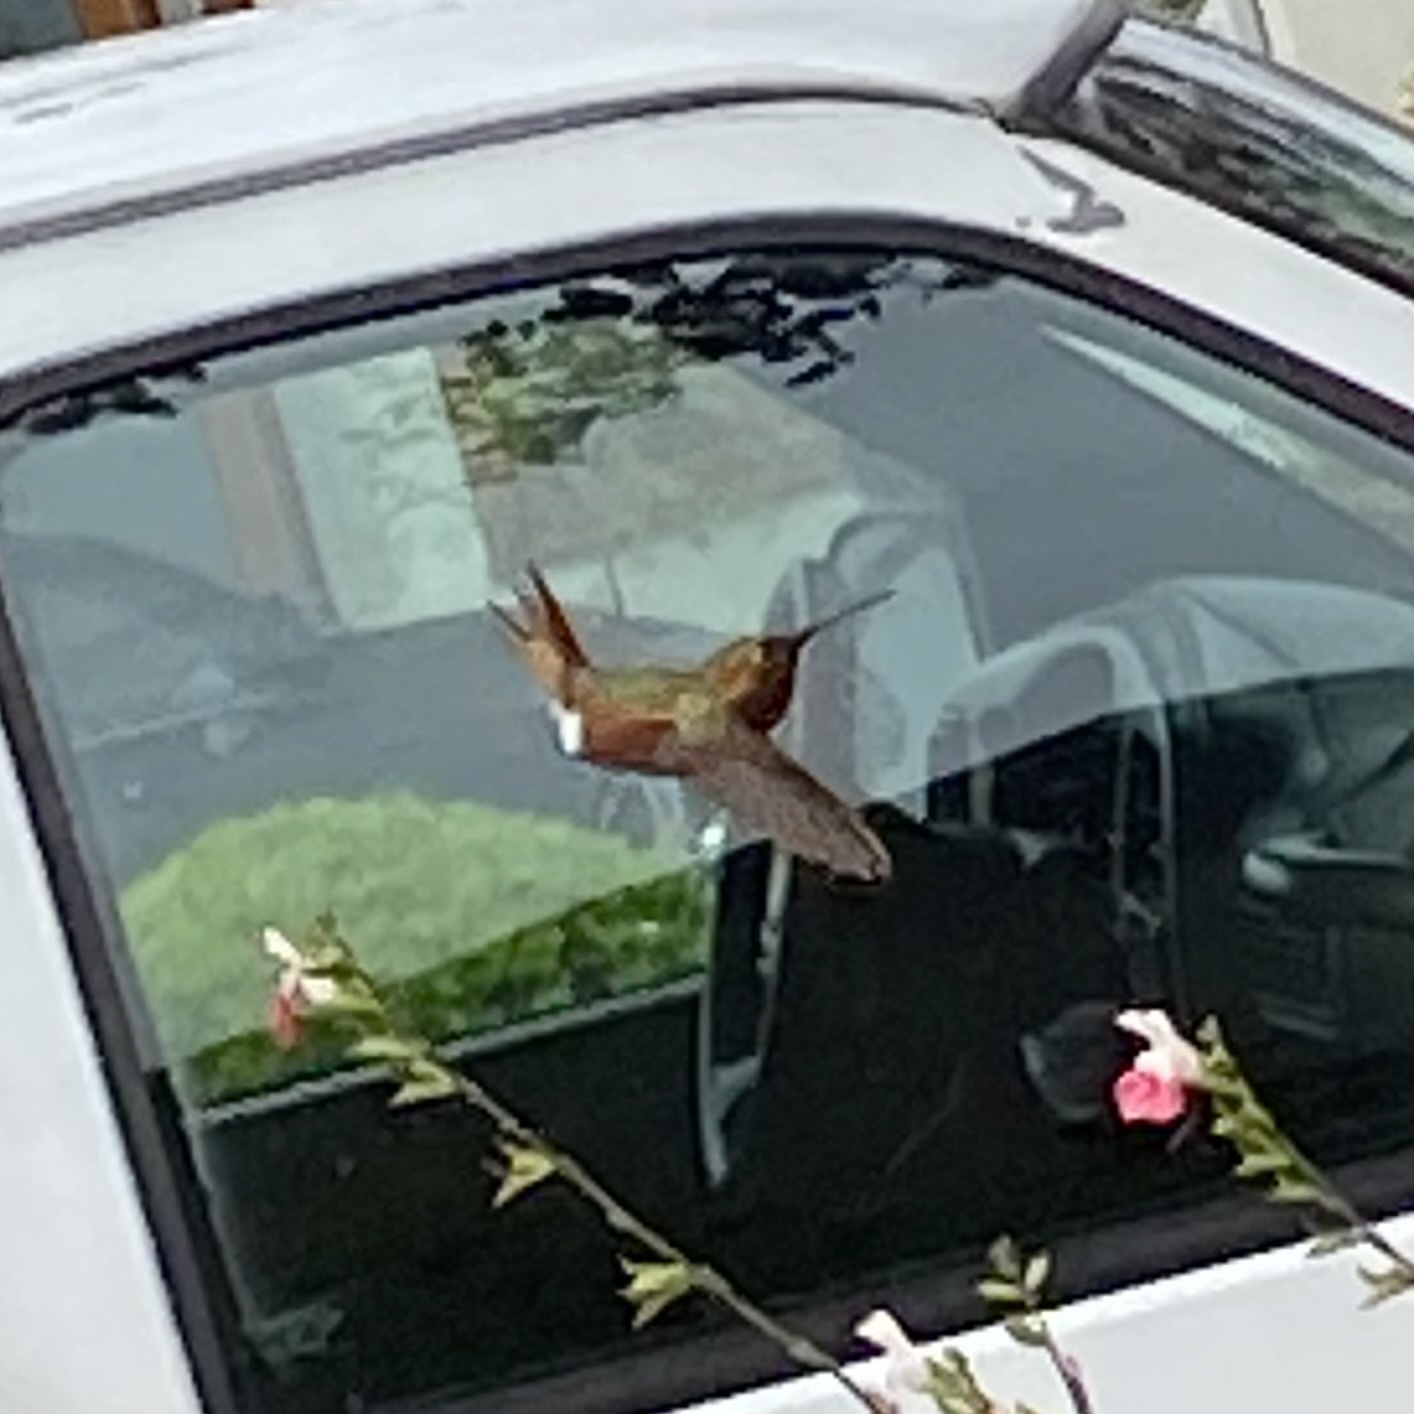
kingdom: Animalia
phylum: Chordata
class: Aves
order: Apodiformes
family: Trochilidae
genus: Selasphorus
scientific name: Selasphorus sasin
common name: Allen's hummingbird
